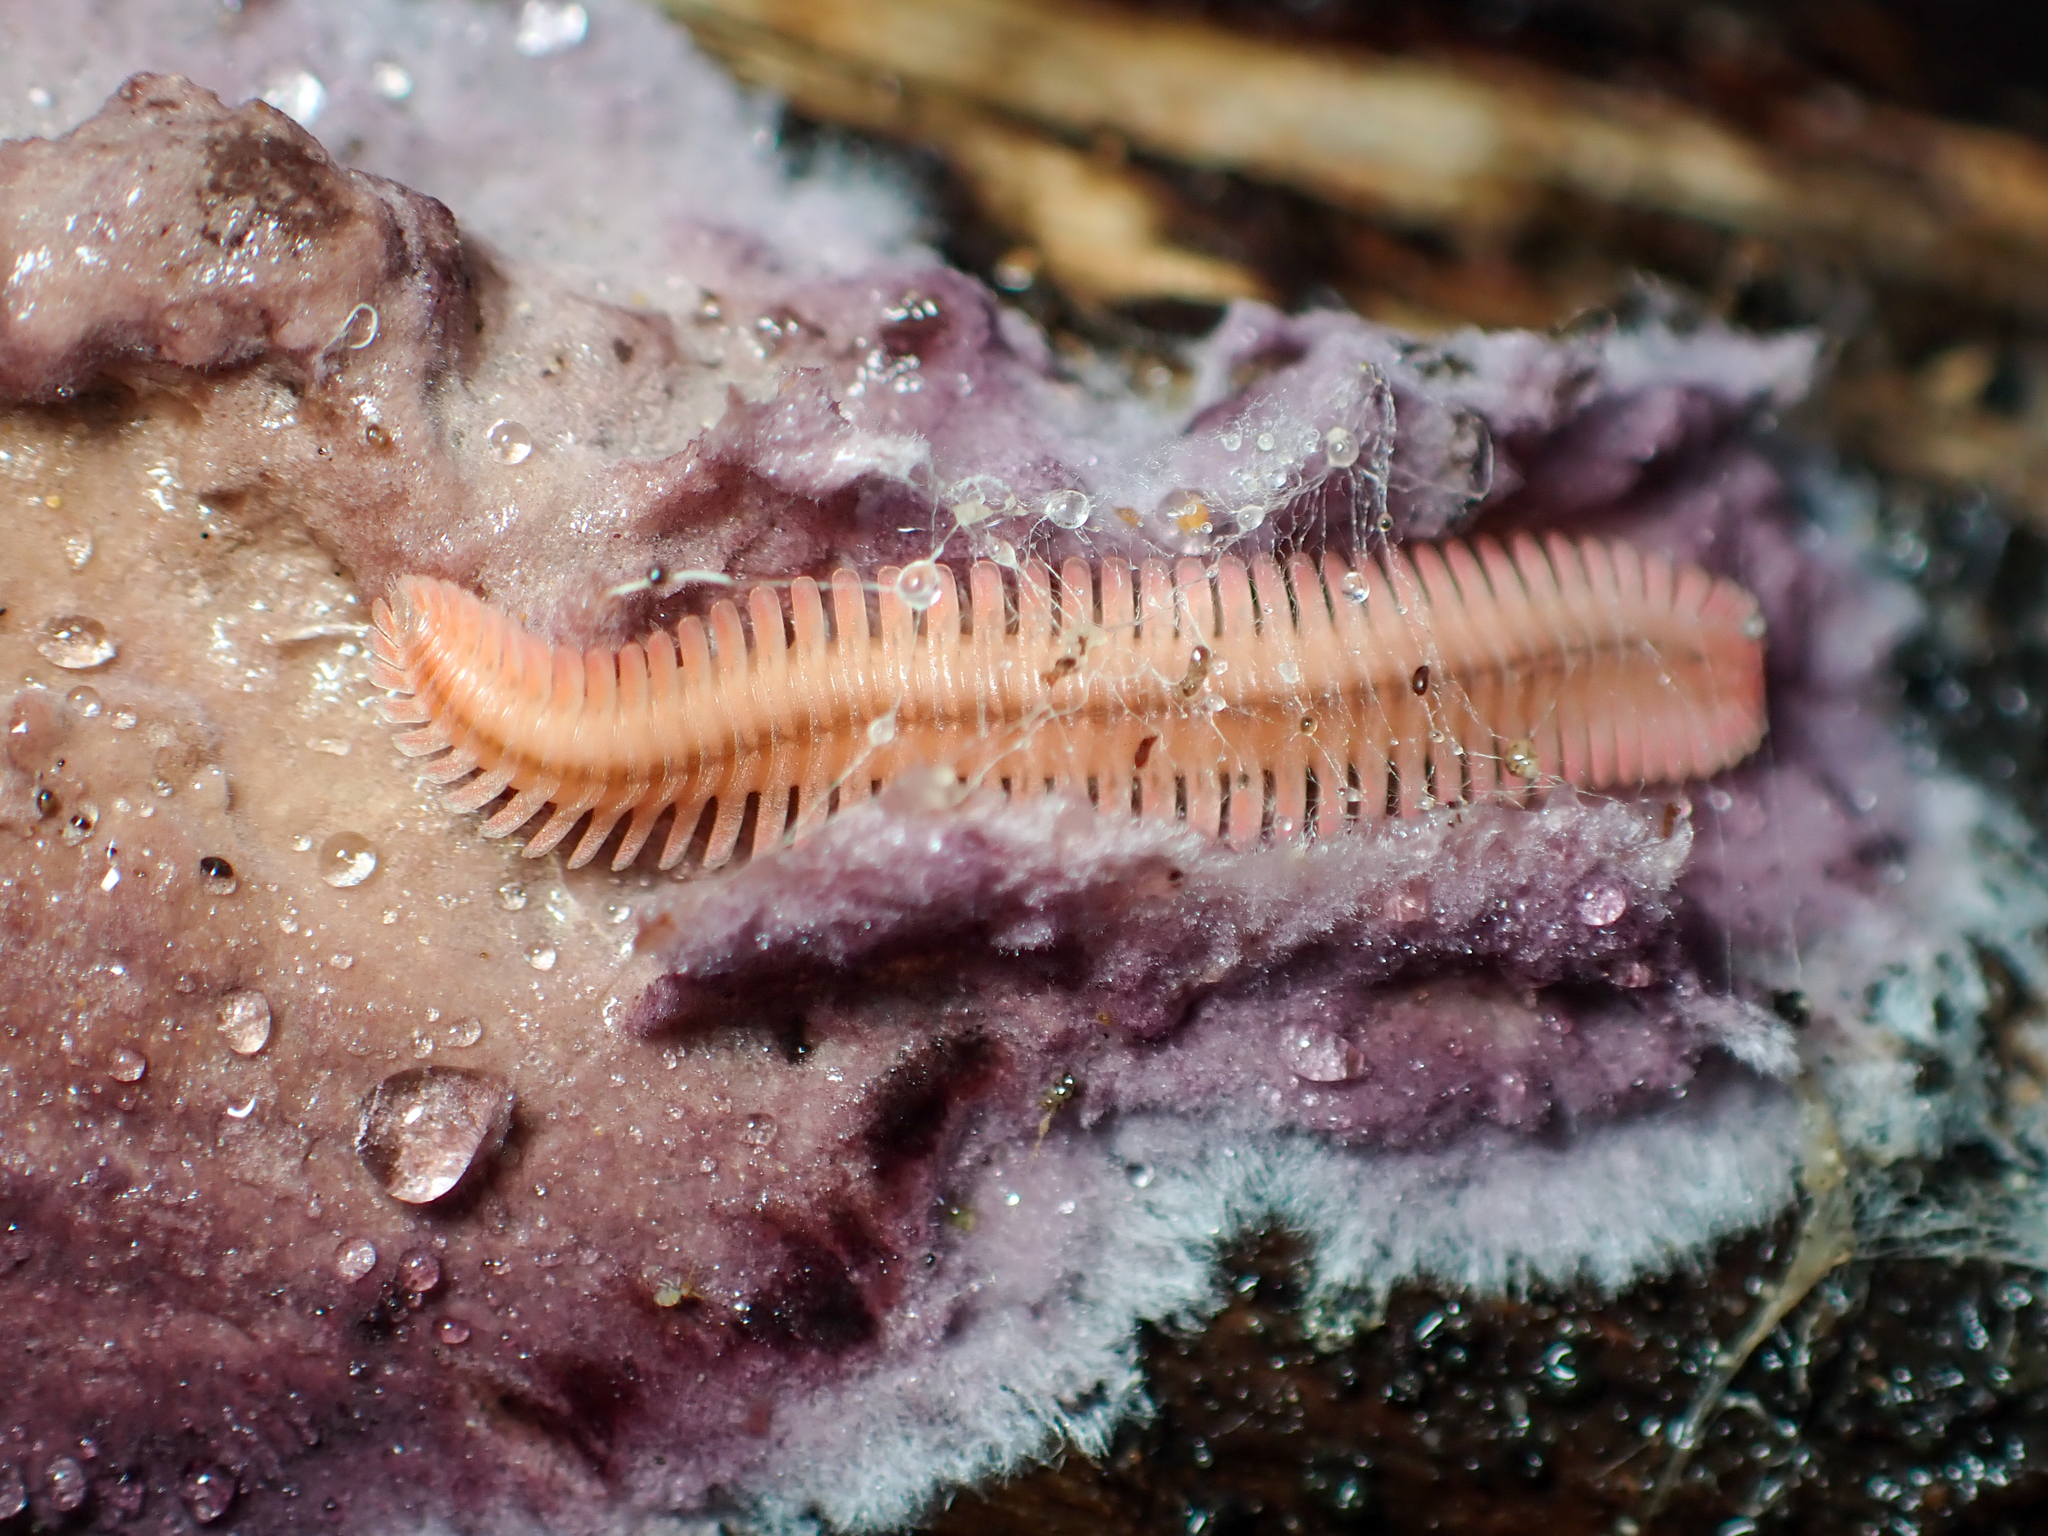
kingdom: Animalia
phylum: Arthropoda
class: Diplopoda
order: Platydesmida
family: Andrognathidae
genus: Brachycybe
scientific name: Brachycybe lecontii
